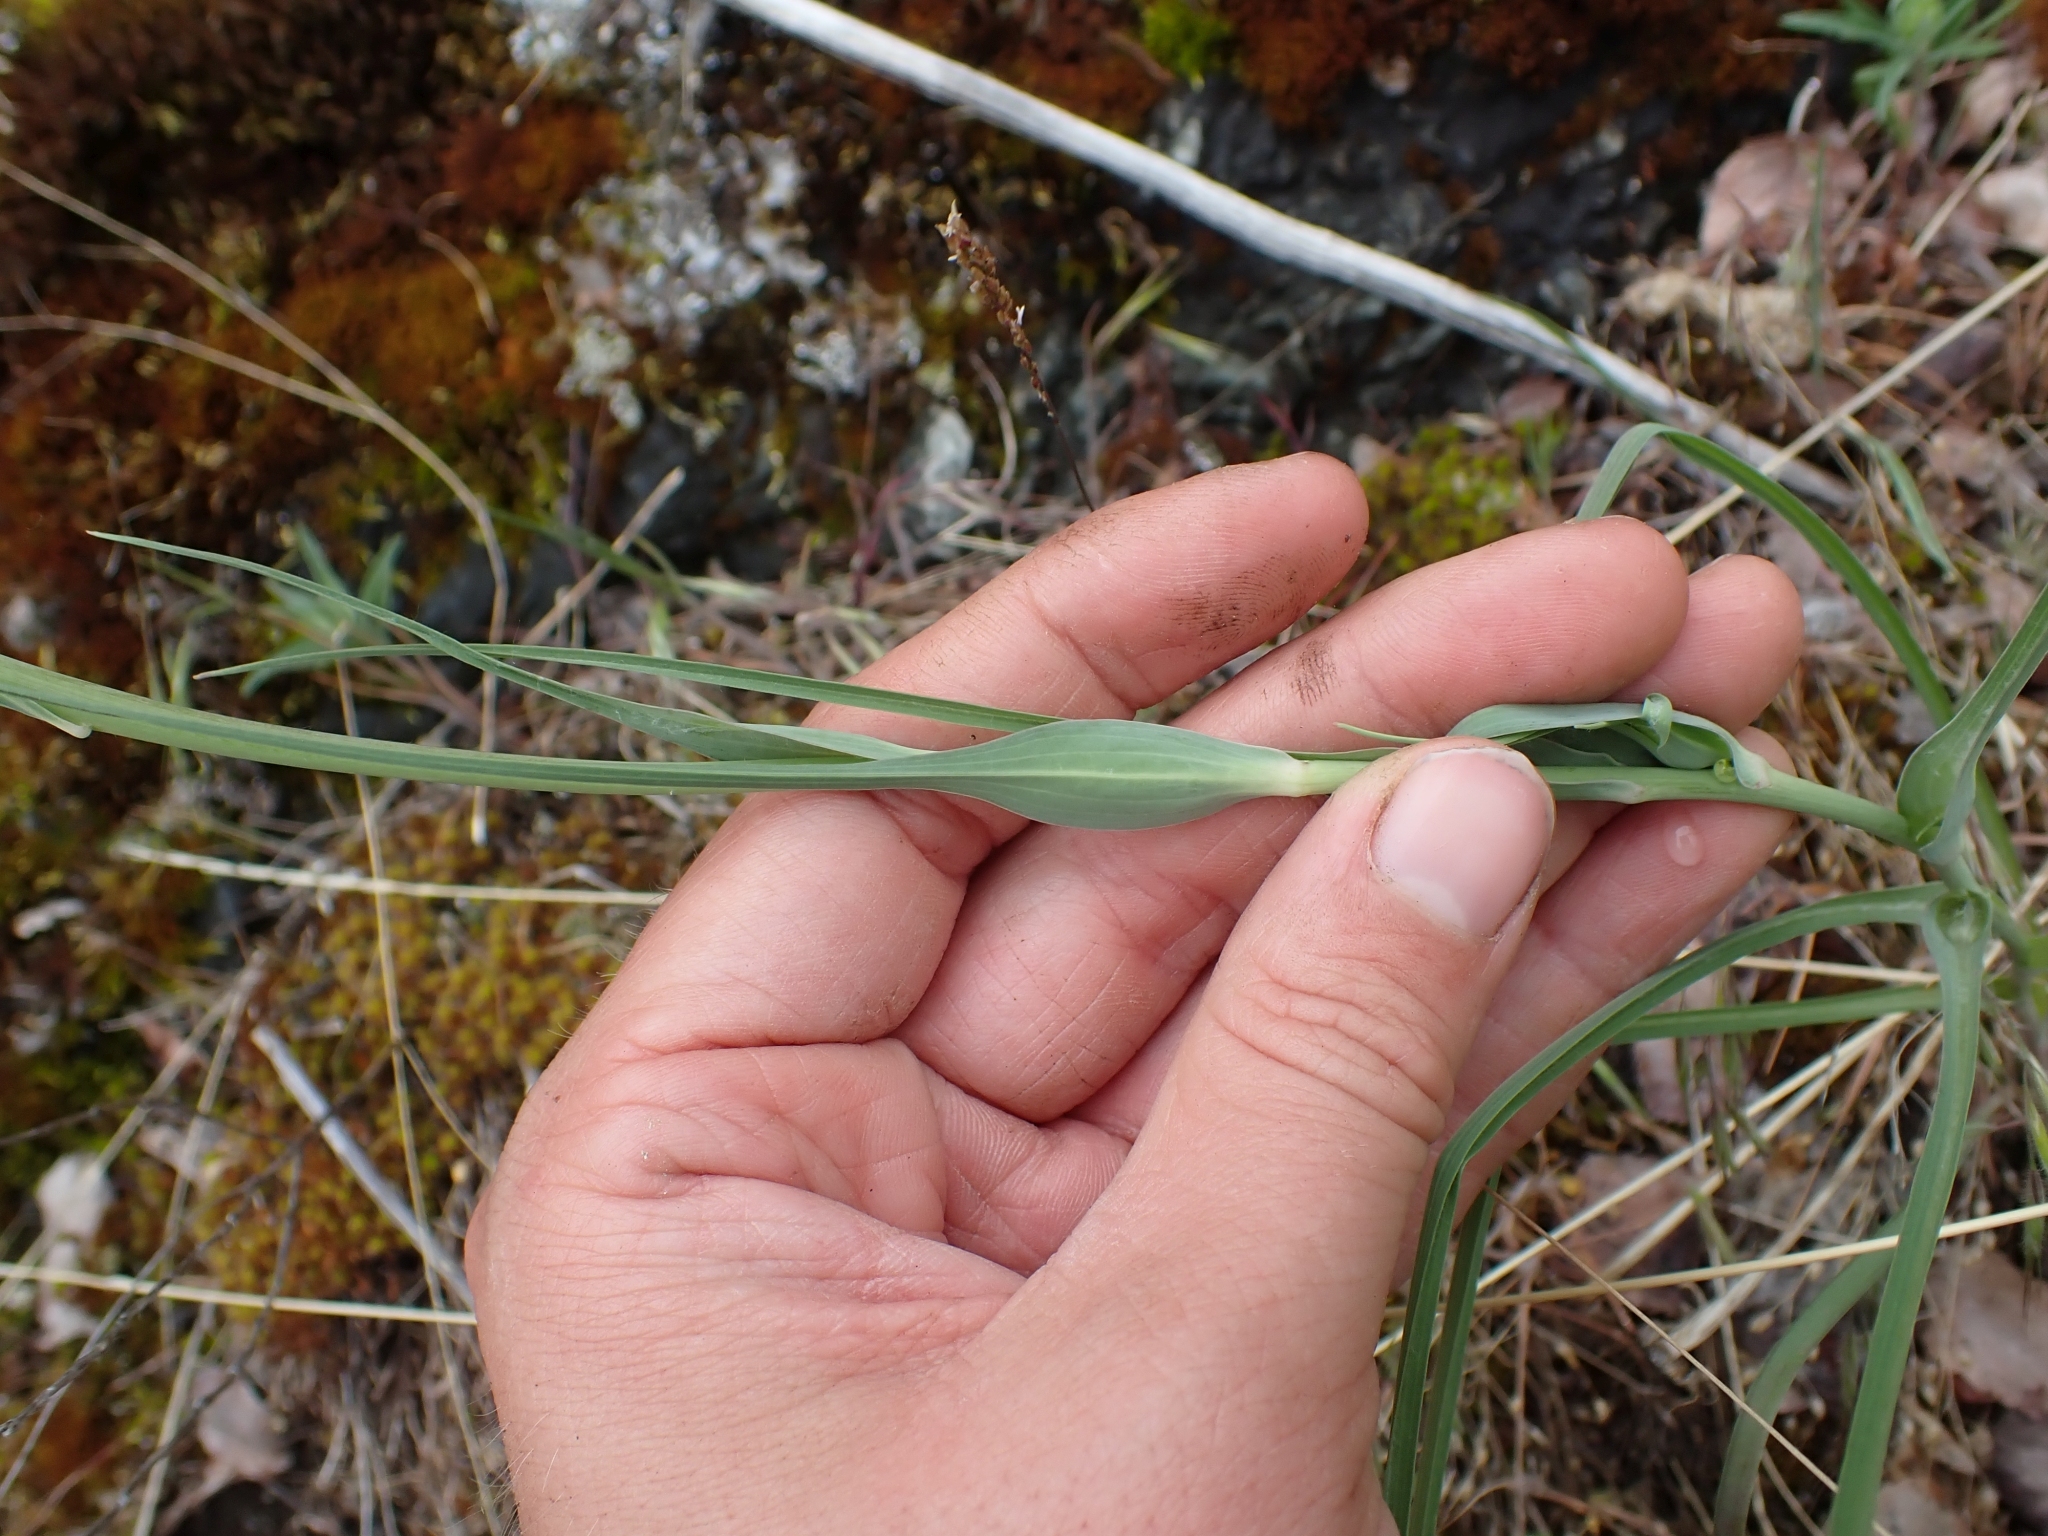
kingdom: Plantae
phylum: Tracheophyta
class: Magnoliopsida
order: Asterales
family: Asteraceae
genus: Tragopogon
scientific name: Tragopogon dubius
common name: Yellow salsify
